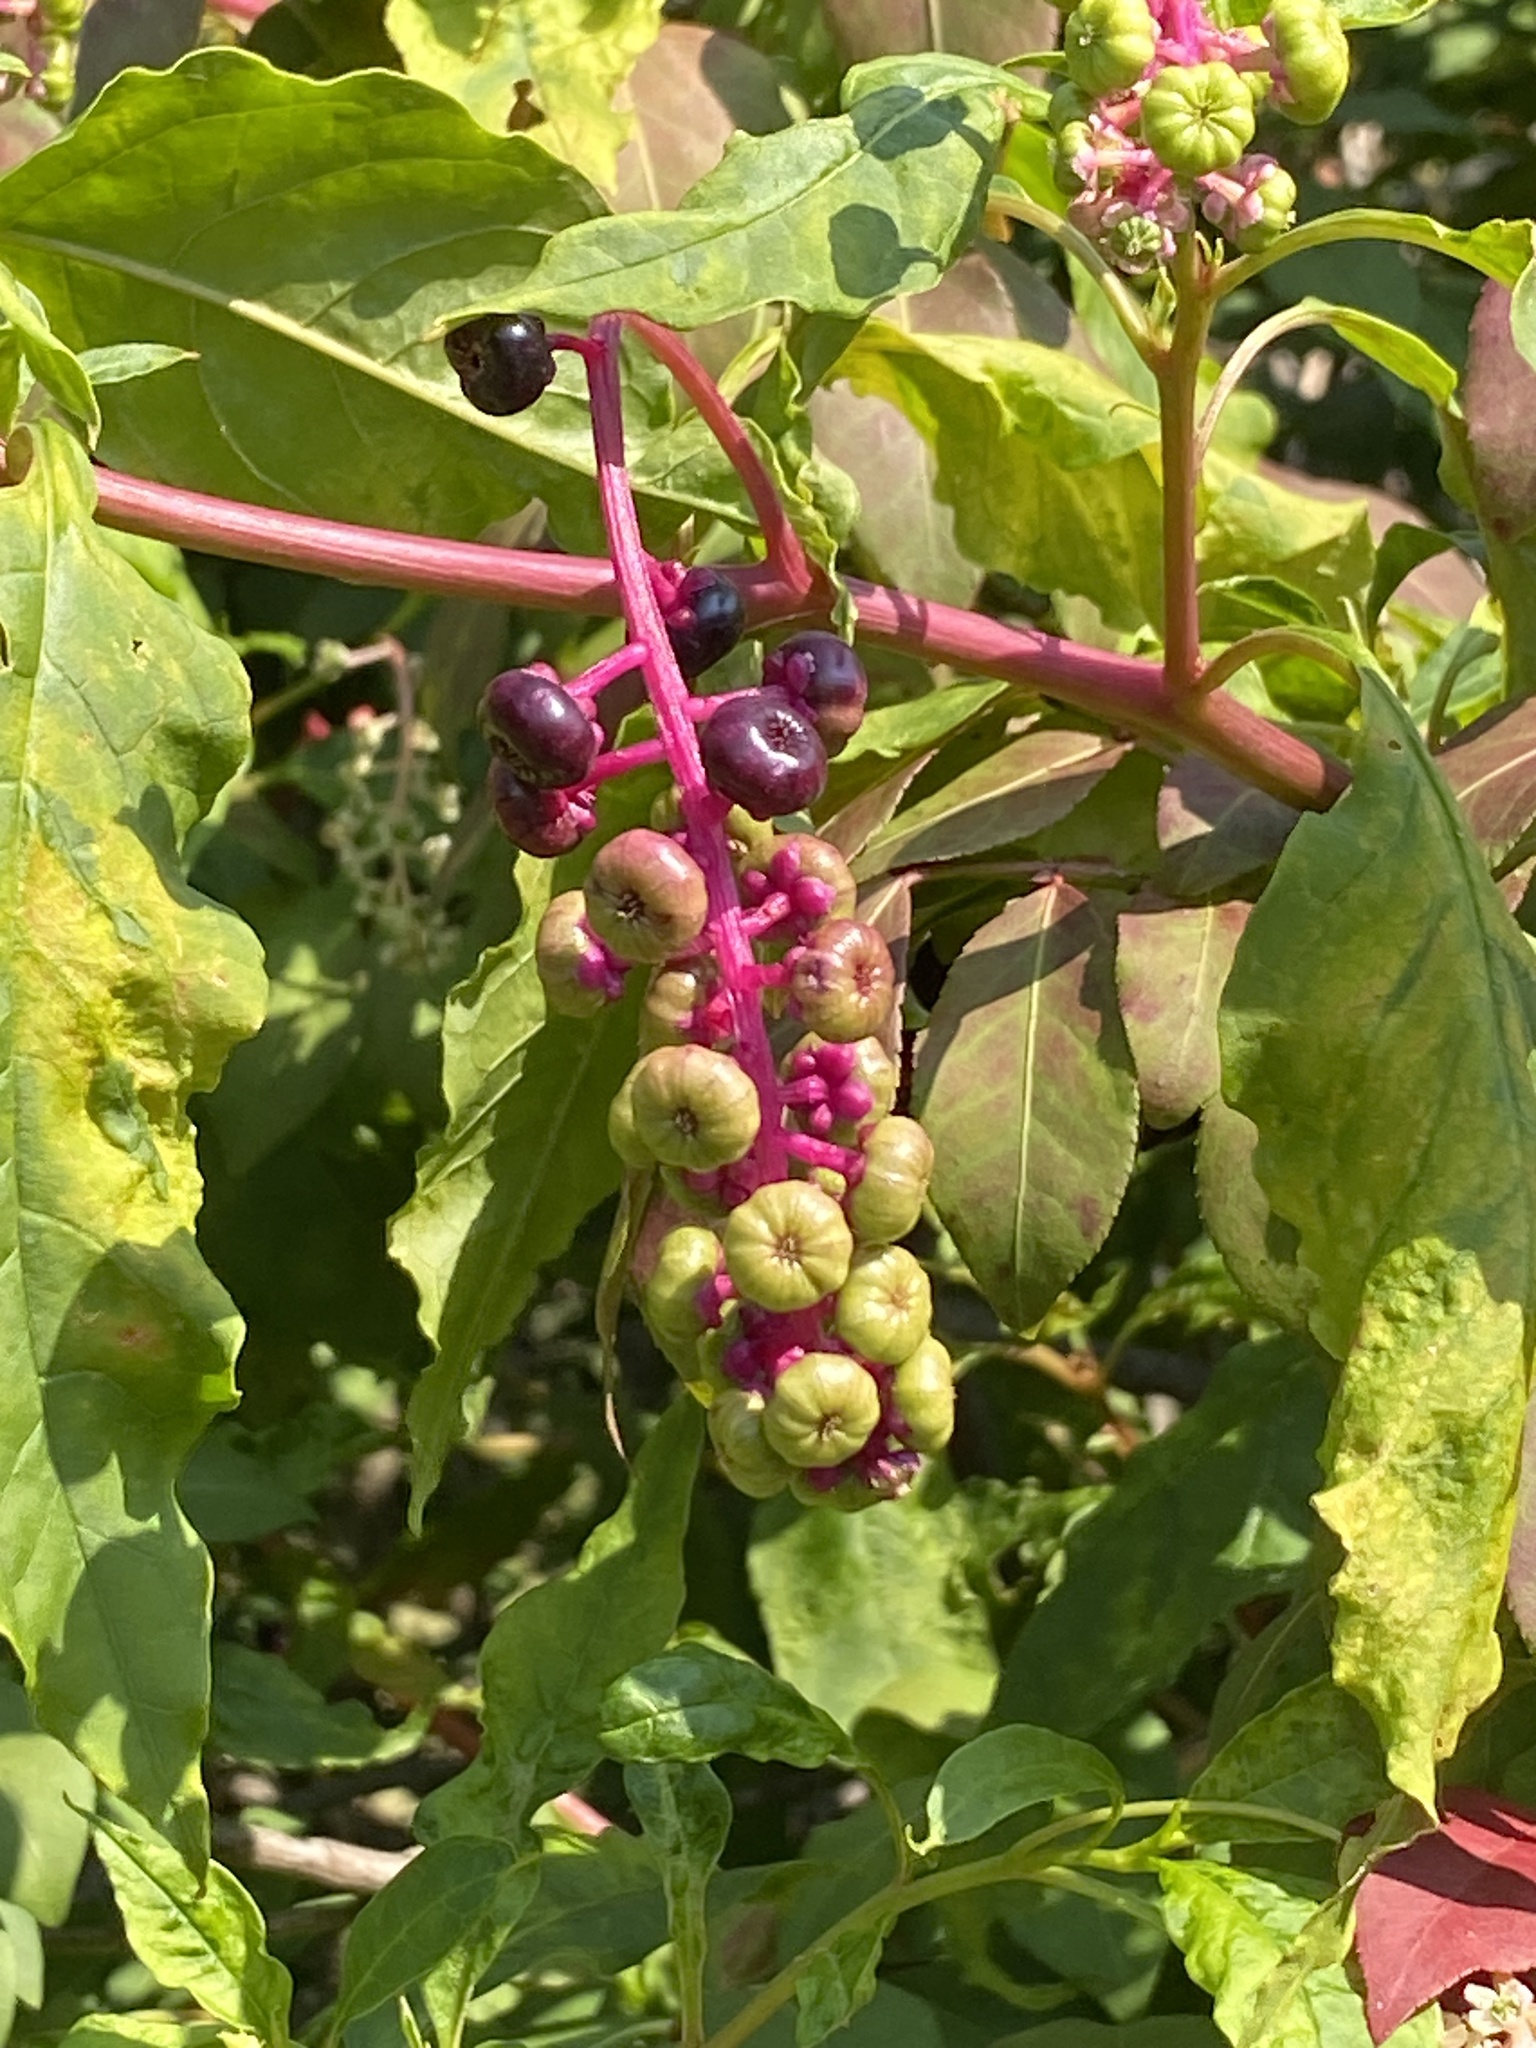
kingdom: Plantae
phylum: Tracheophyta
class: Magnoliopsida
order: Caryophyllales
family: Phytolaccaceae
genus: Phytolacca
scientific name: Phytolacca americana
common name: American pokeweed
